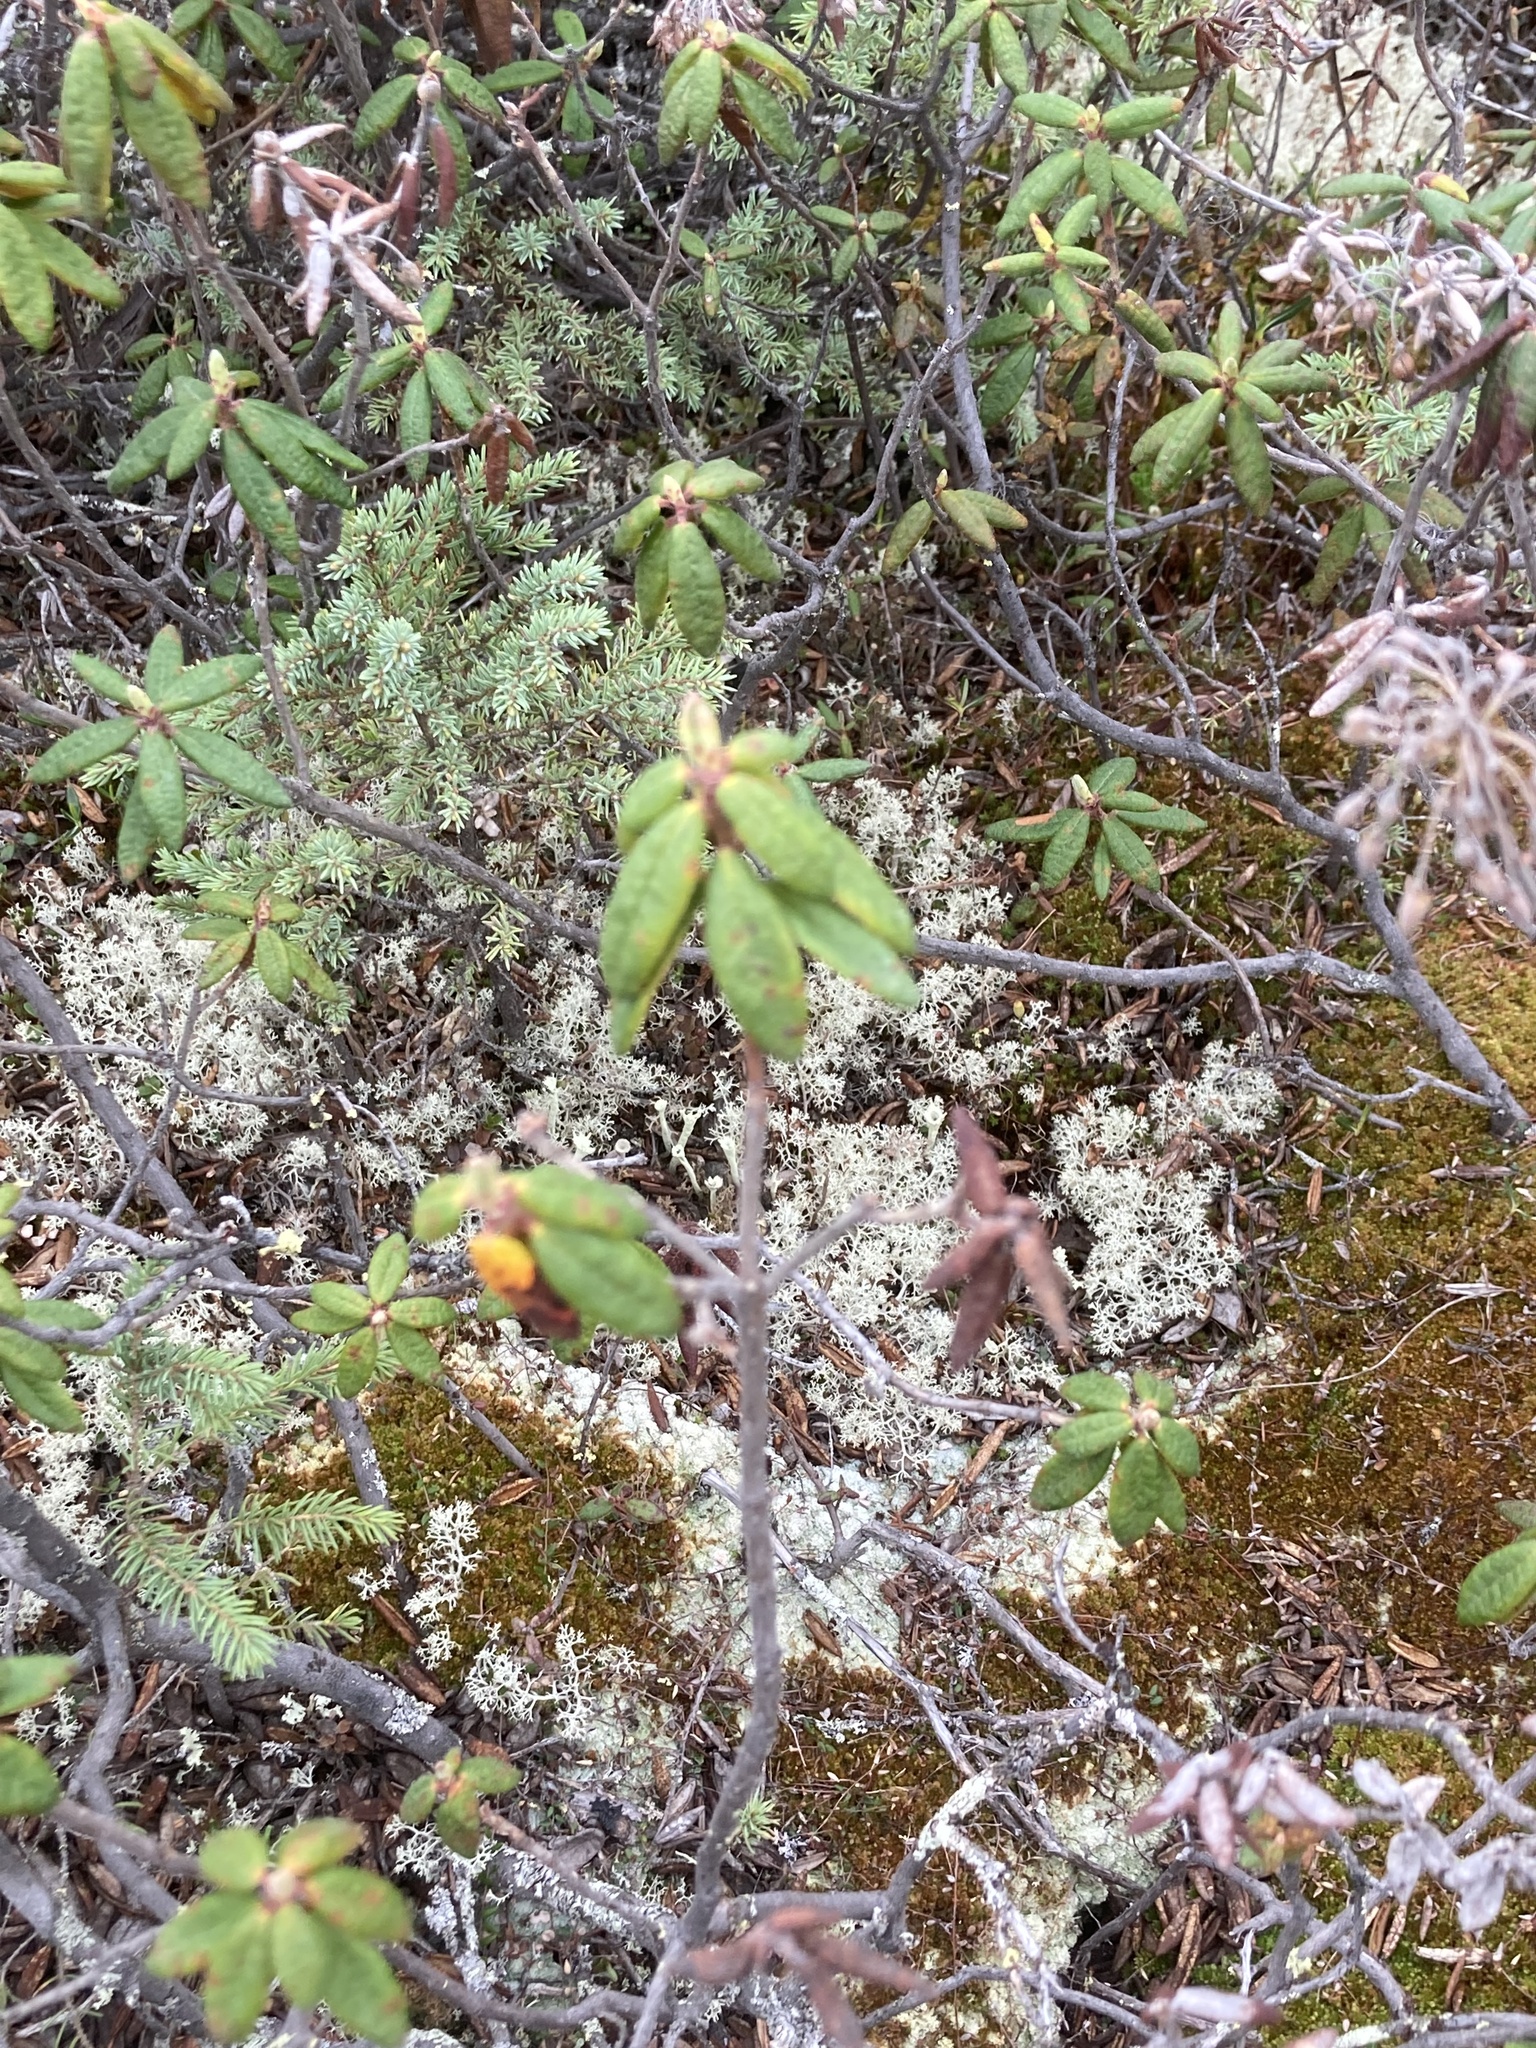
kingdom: Plantae
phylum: Tracheophyta
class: Magnoliopsida
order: Ericales
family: Ericaceae
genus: Rhododendron
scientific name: Rhododendron groenlandicum
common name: Bog labrador tea
